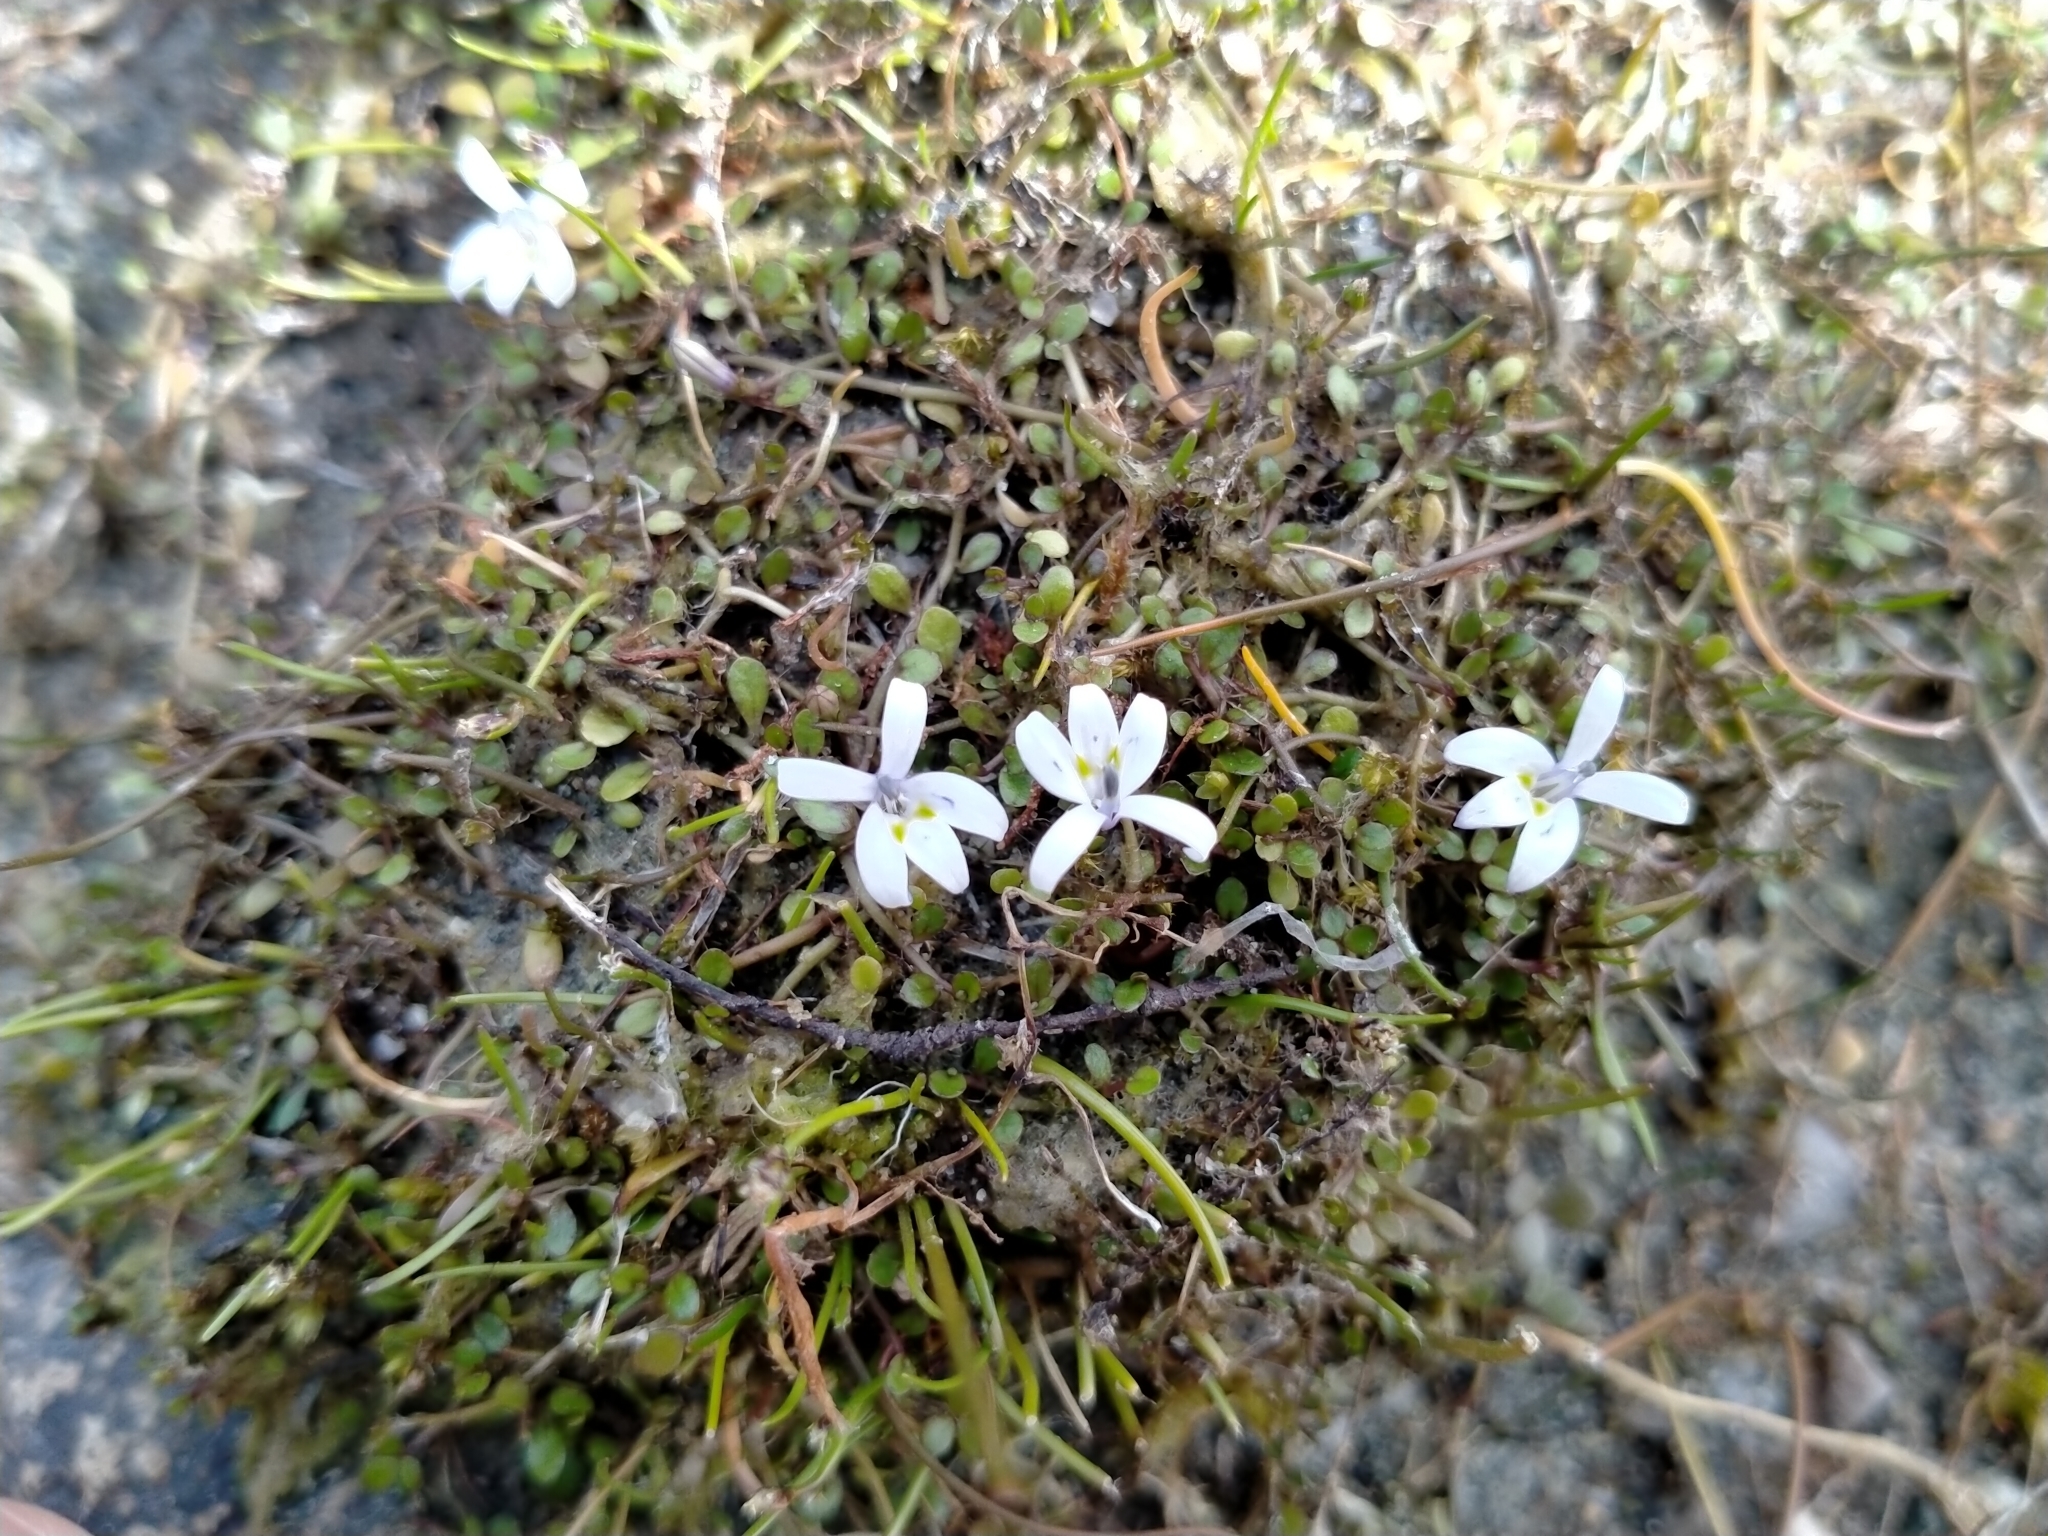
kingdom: Plantae
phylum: Tracheophyta
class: Magnoliopsida
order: Asterales
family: Campanulaceae
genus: Isotoma
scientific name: Isotoma rivalis
